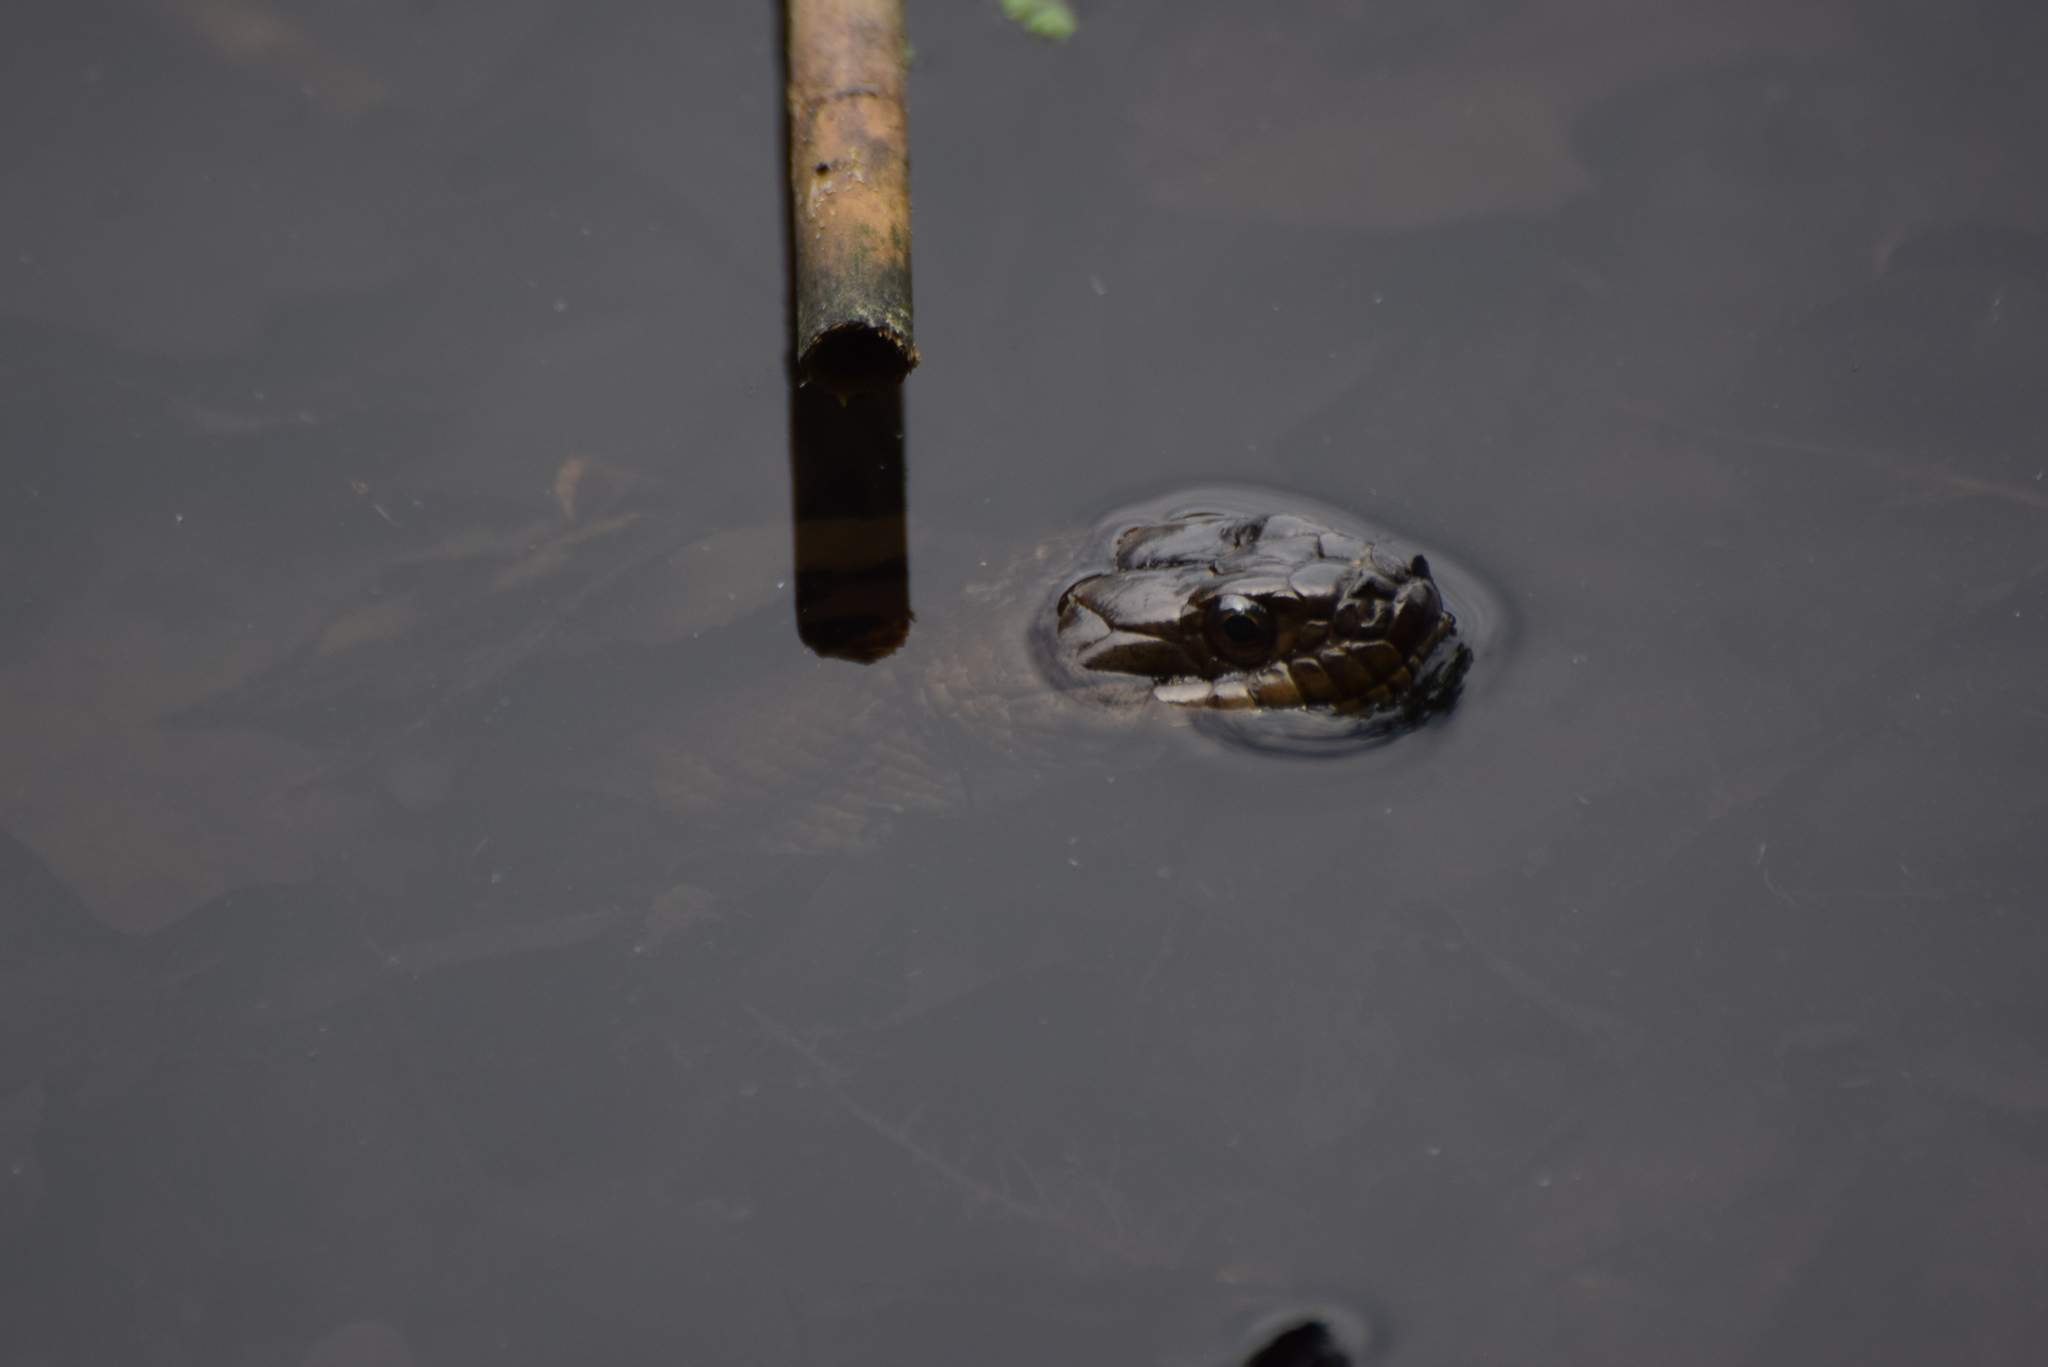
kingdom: Animalia
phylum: Chordata
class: Squamata
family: Colubridae
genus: Nerodia
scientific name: Nerodia sipedon
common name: Northern water snake
